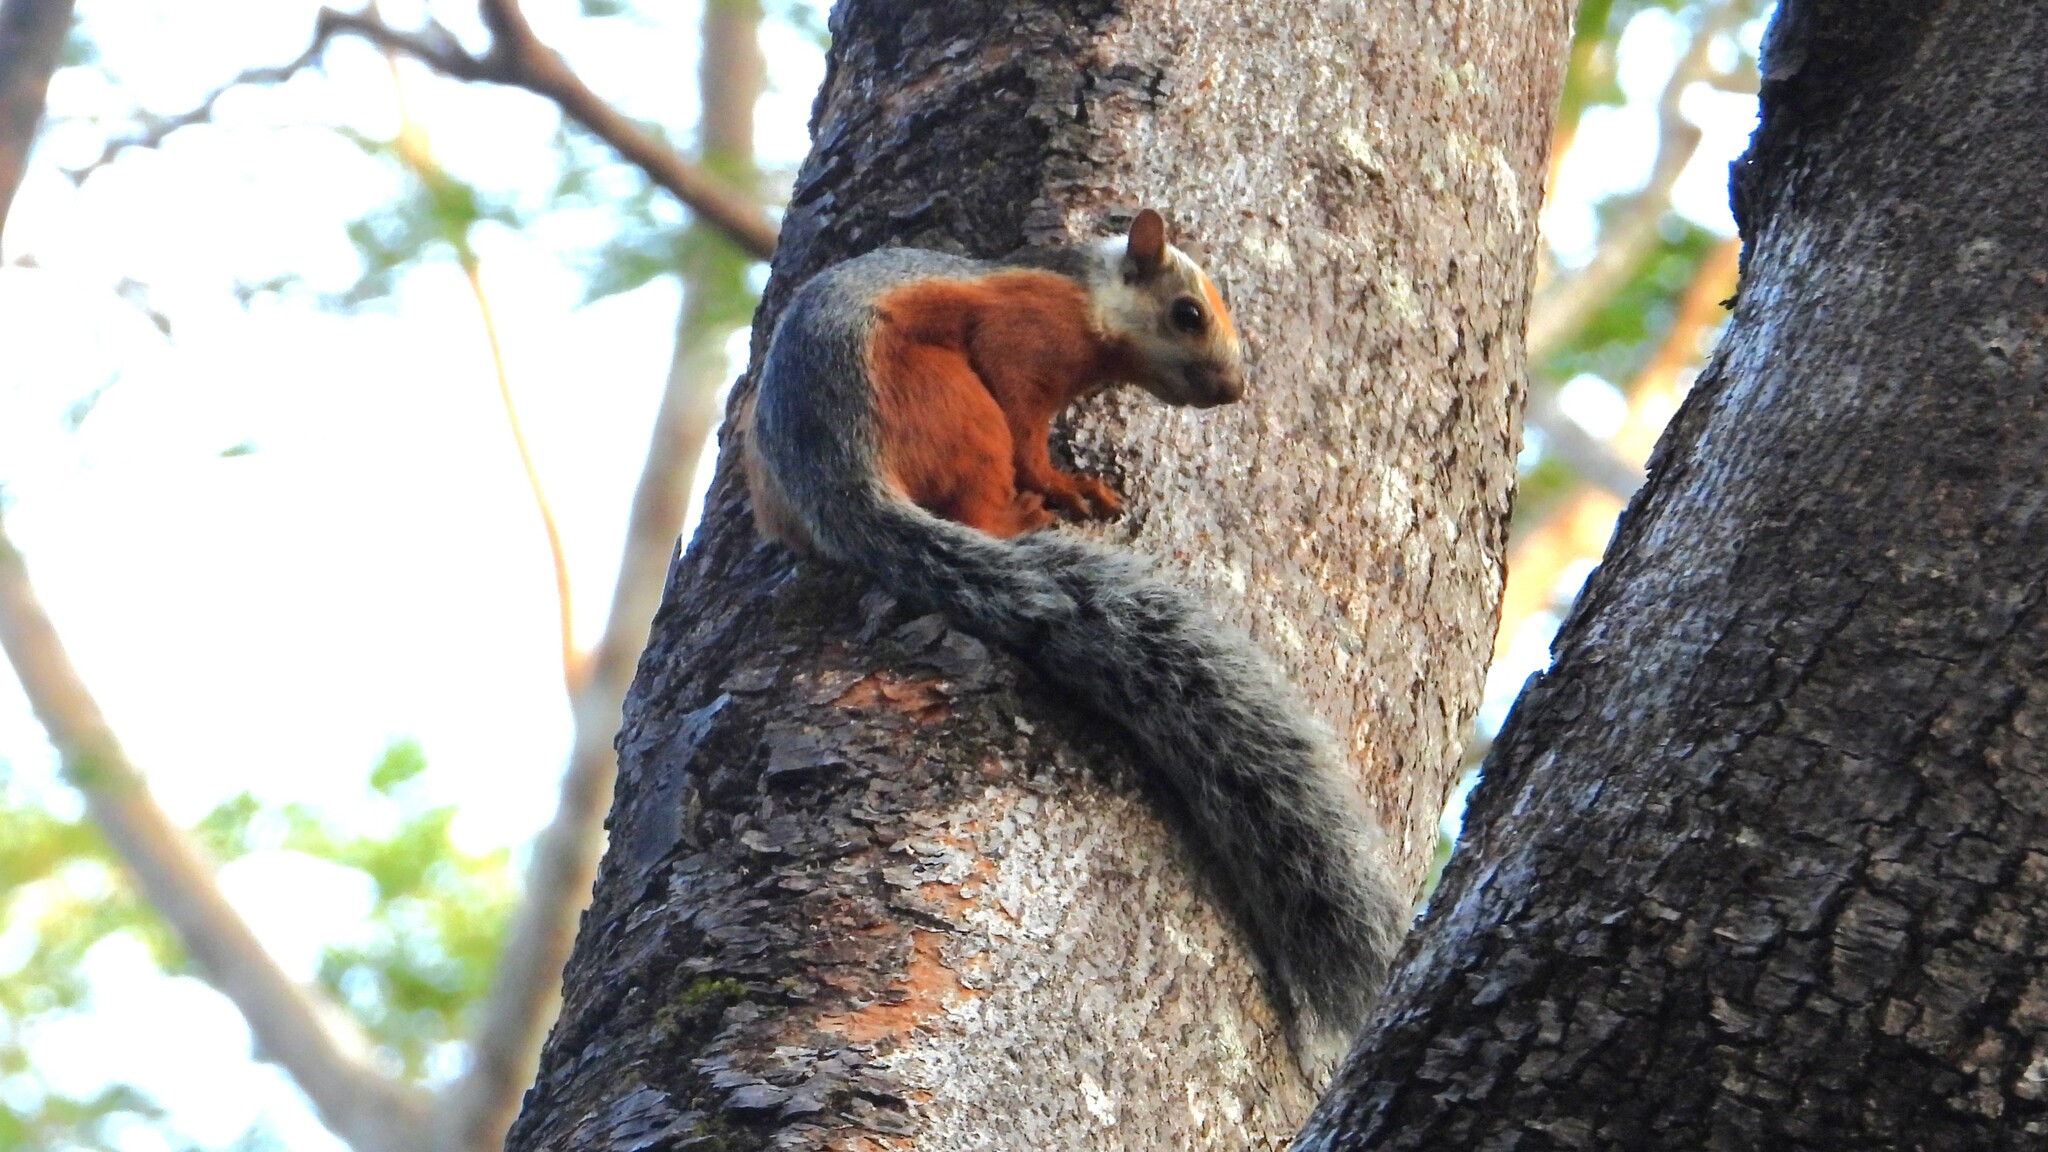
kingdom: Animalia
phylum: Chordata
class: Mammalia
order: Rodentia
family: Sciuridae
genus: Sciurus
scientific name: Sciurus variegatoides
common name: Variegated squirrel
